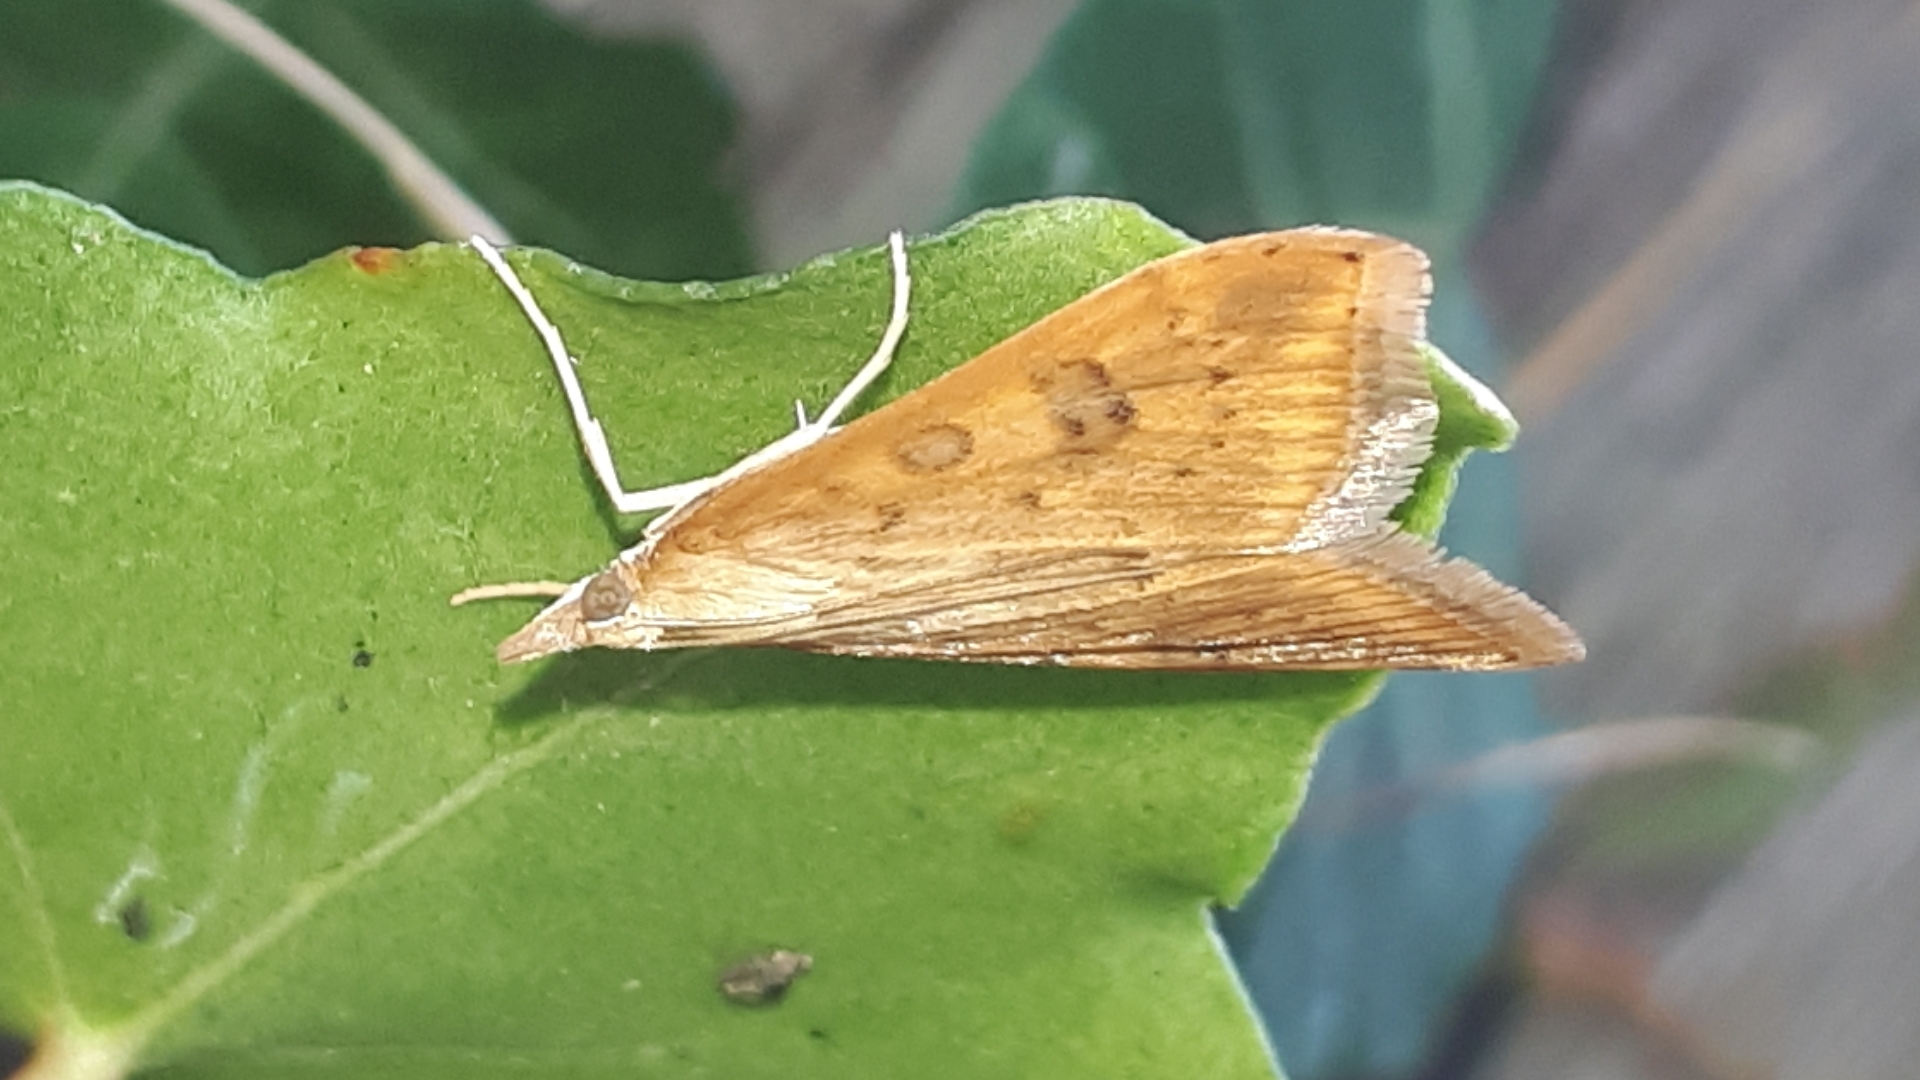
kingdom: Animalia
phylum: Arthropoda
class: Insecta
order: Lepidoptera
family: Crambidae
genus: Udea
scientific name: Udea ferrugalis
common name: Rusty dot
